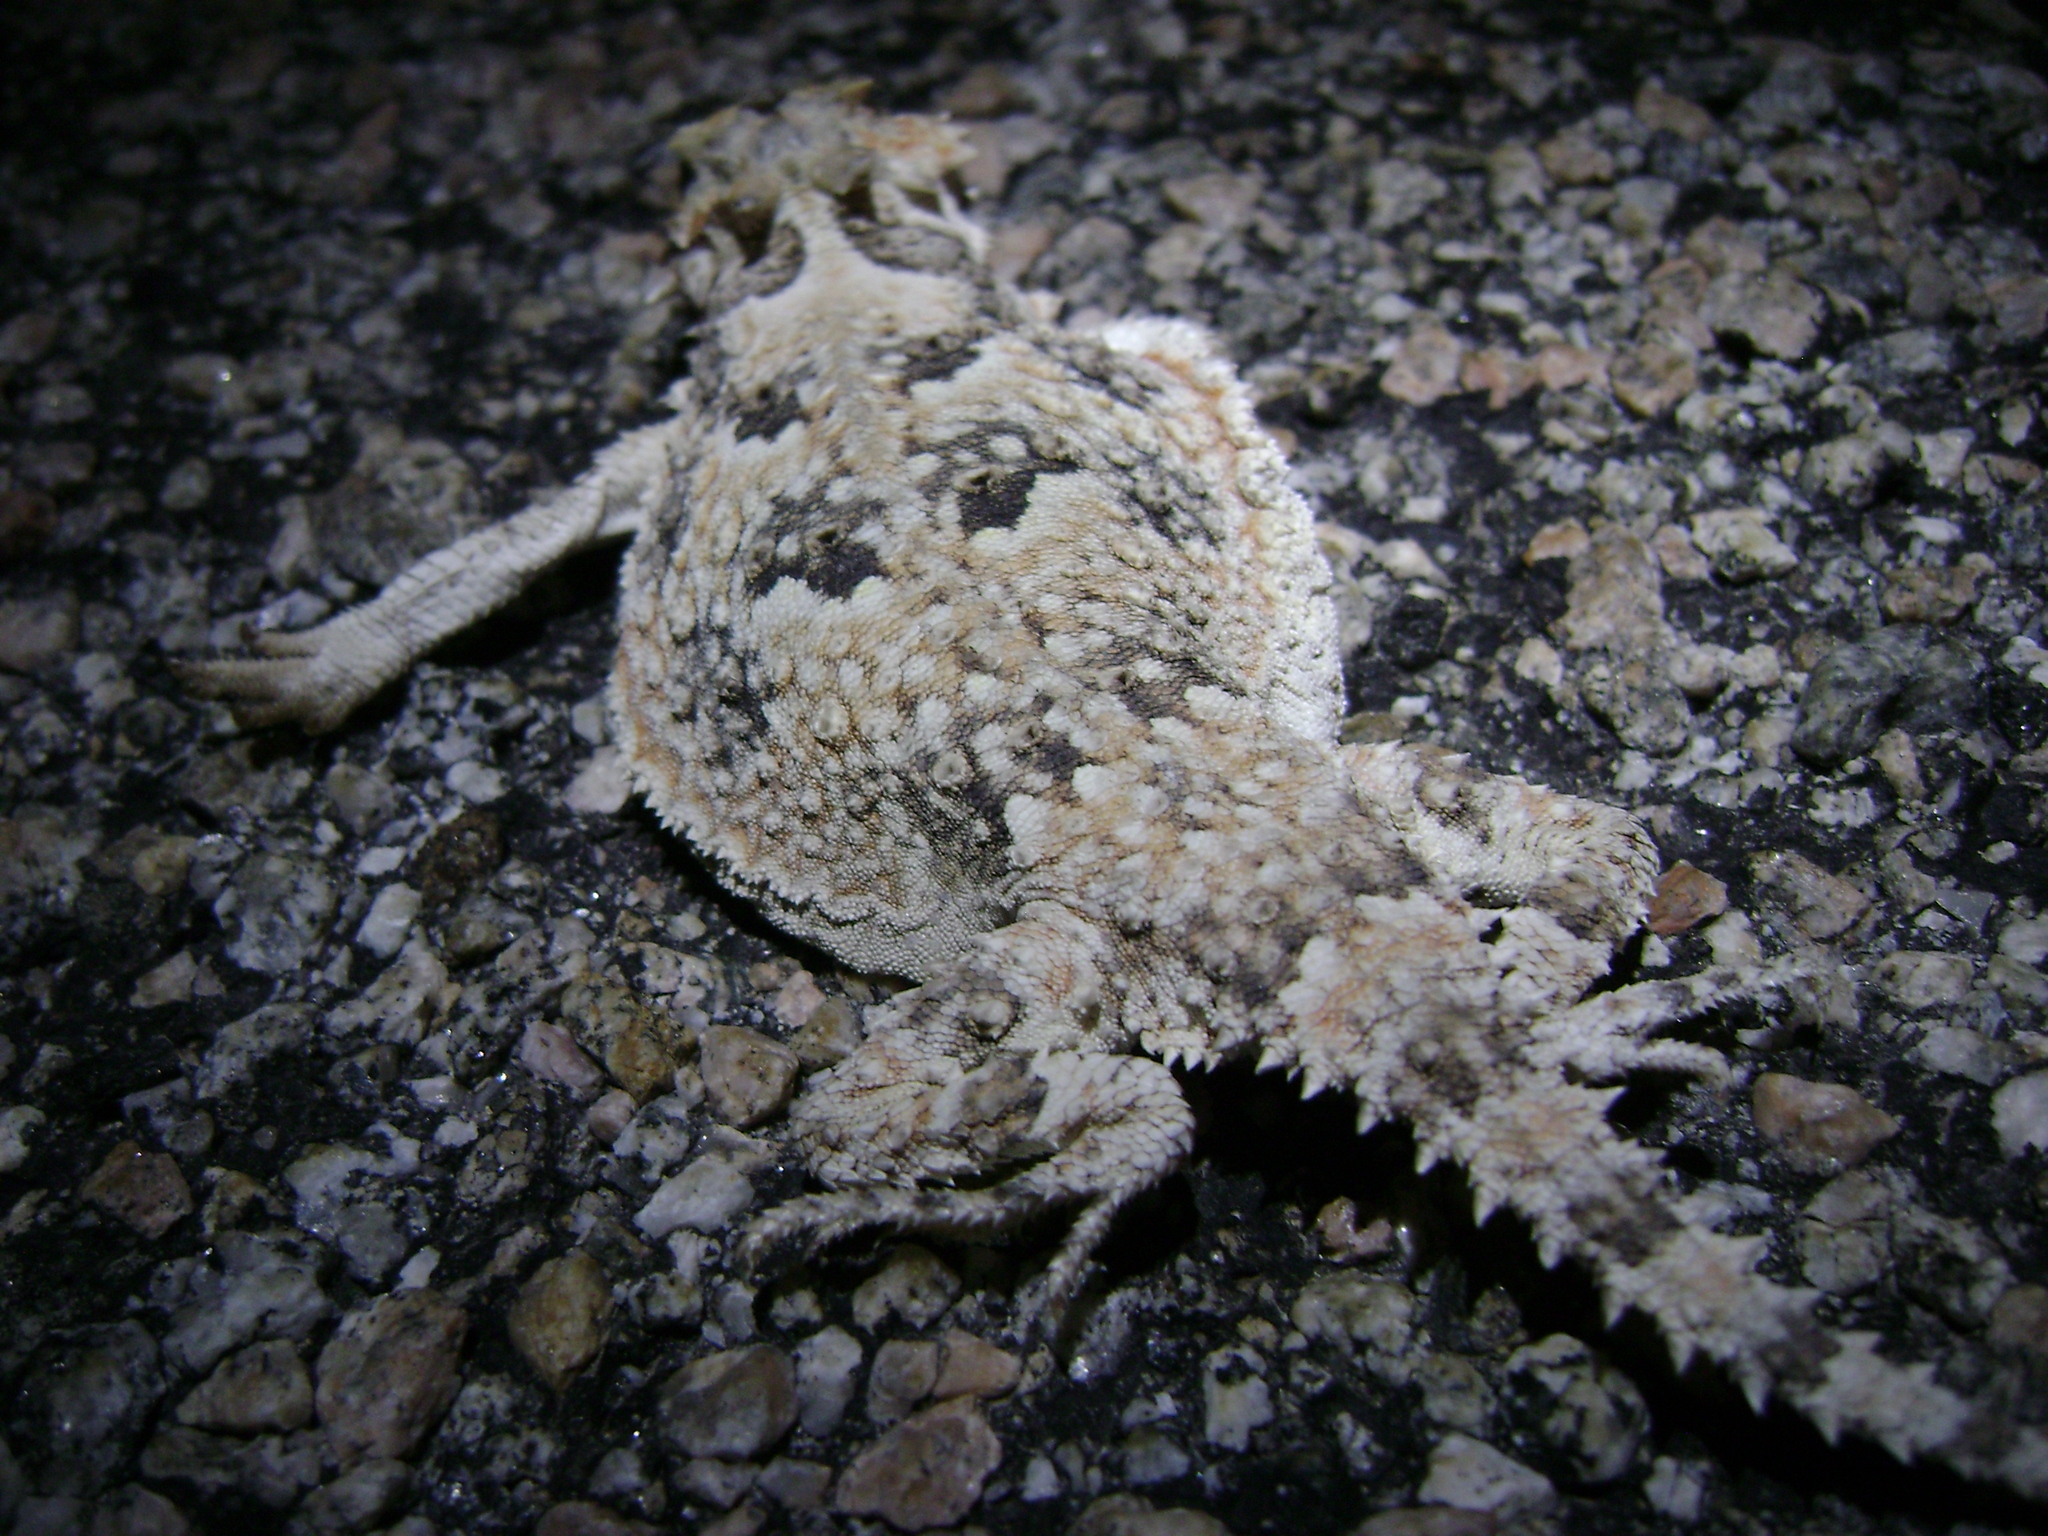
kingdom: Animalia
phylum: Chordata
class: Squamata
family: Phrynosomatidae
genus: Phrynosoma
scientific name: Phrynosoma platyrhinos
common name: Desert horned lizard
